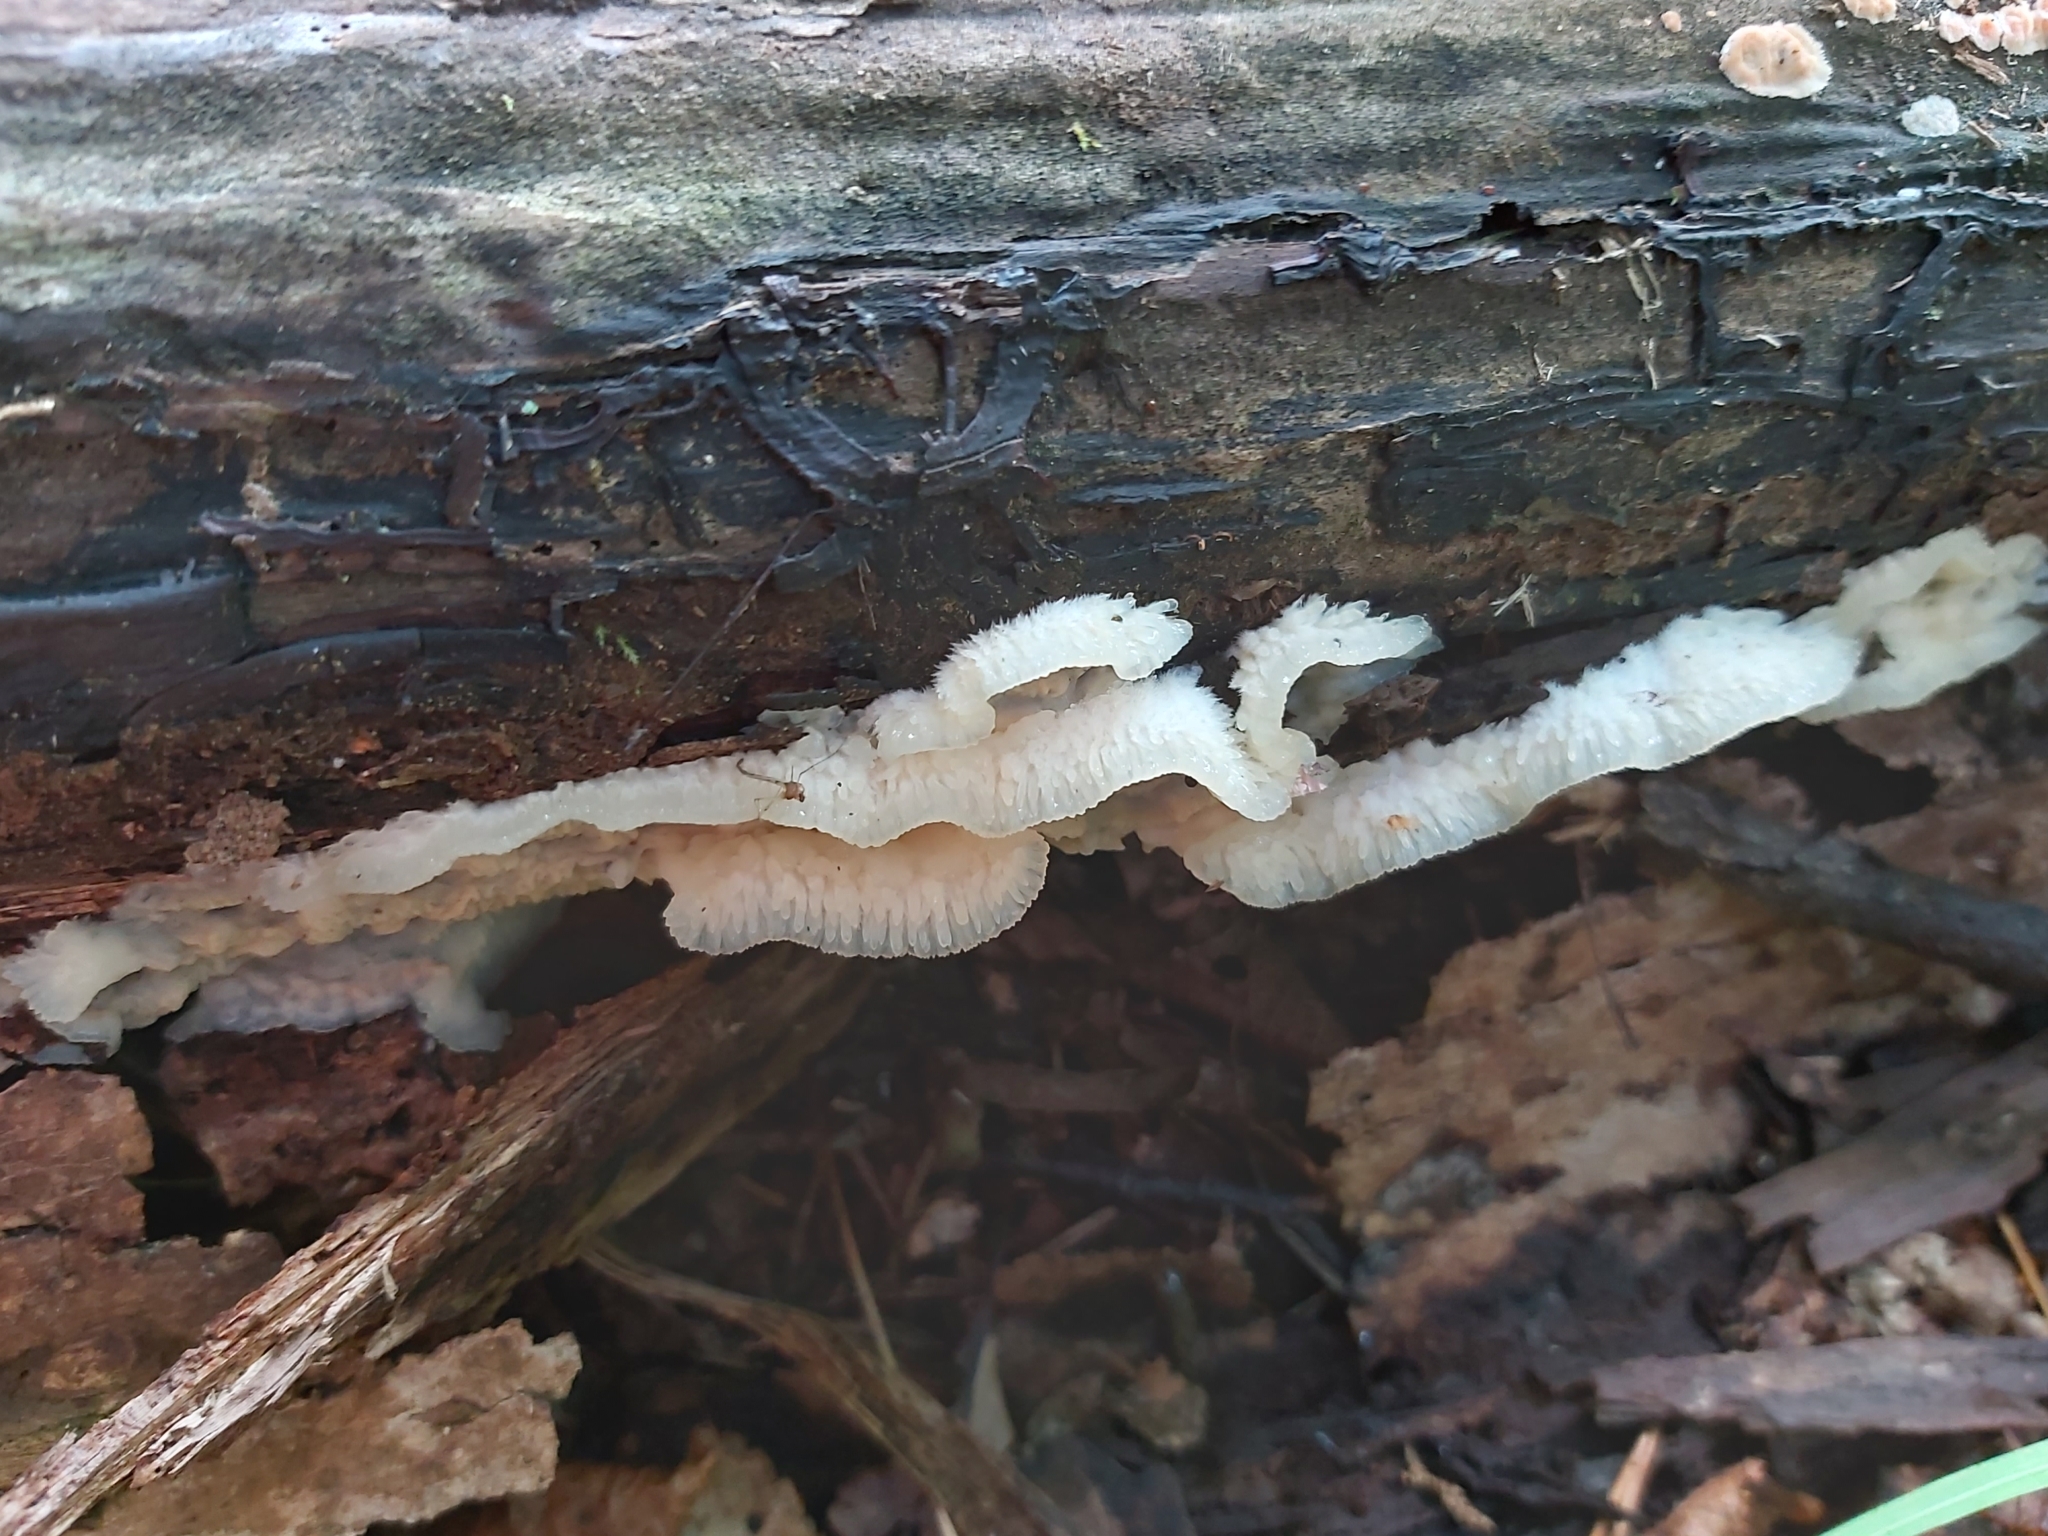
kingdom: Fungi
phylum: Basidiomycota
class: Agaricomycetes
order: Polyporales
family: Meruliaceae
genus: Phlebia
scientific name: Phlebia tremellosa
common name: Jelly rot
